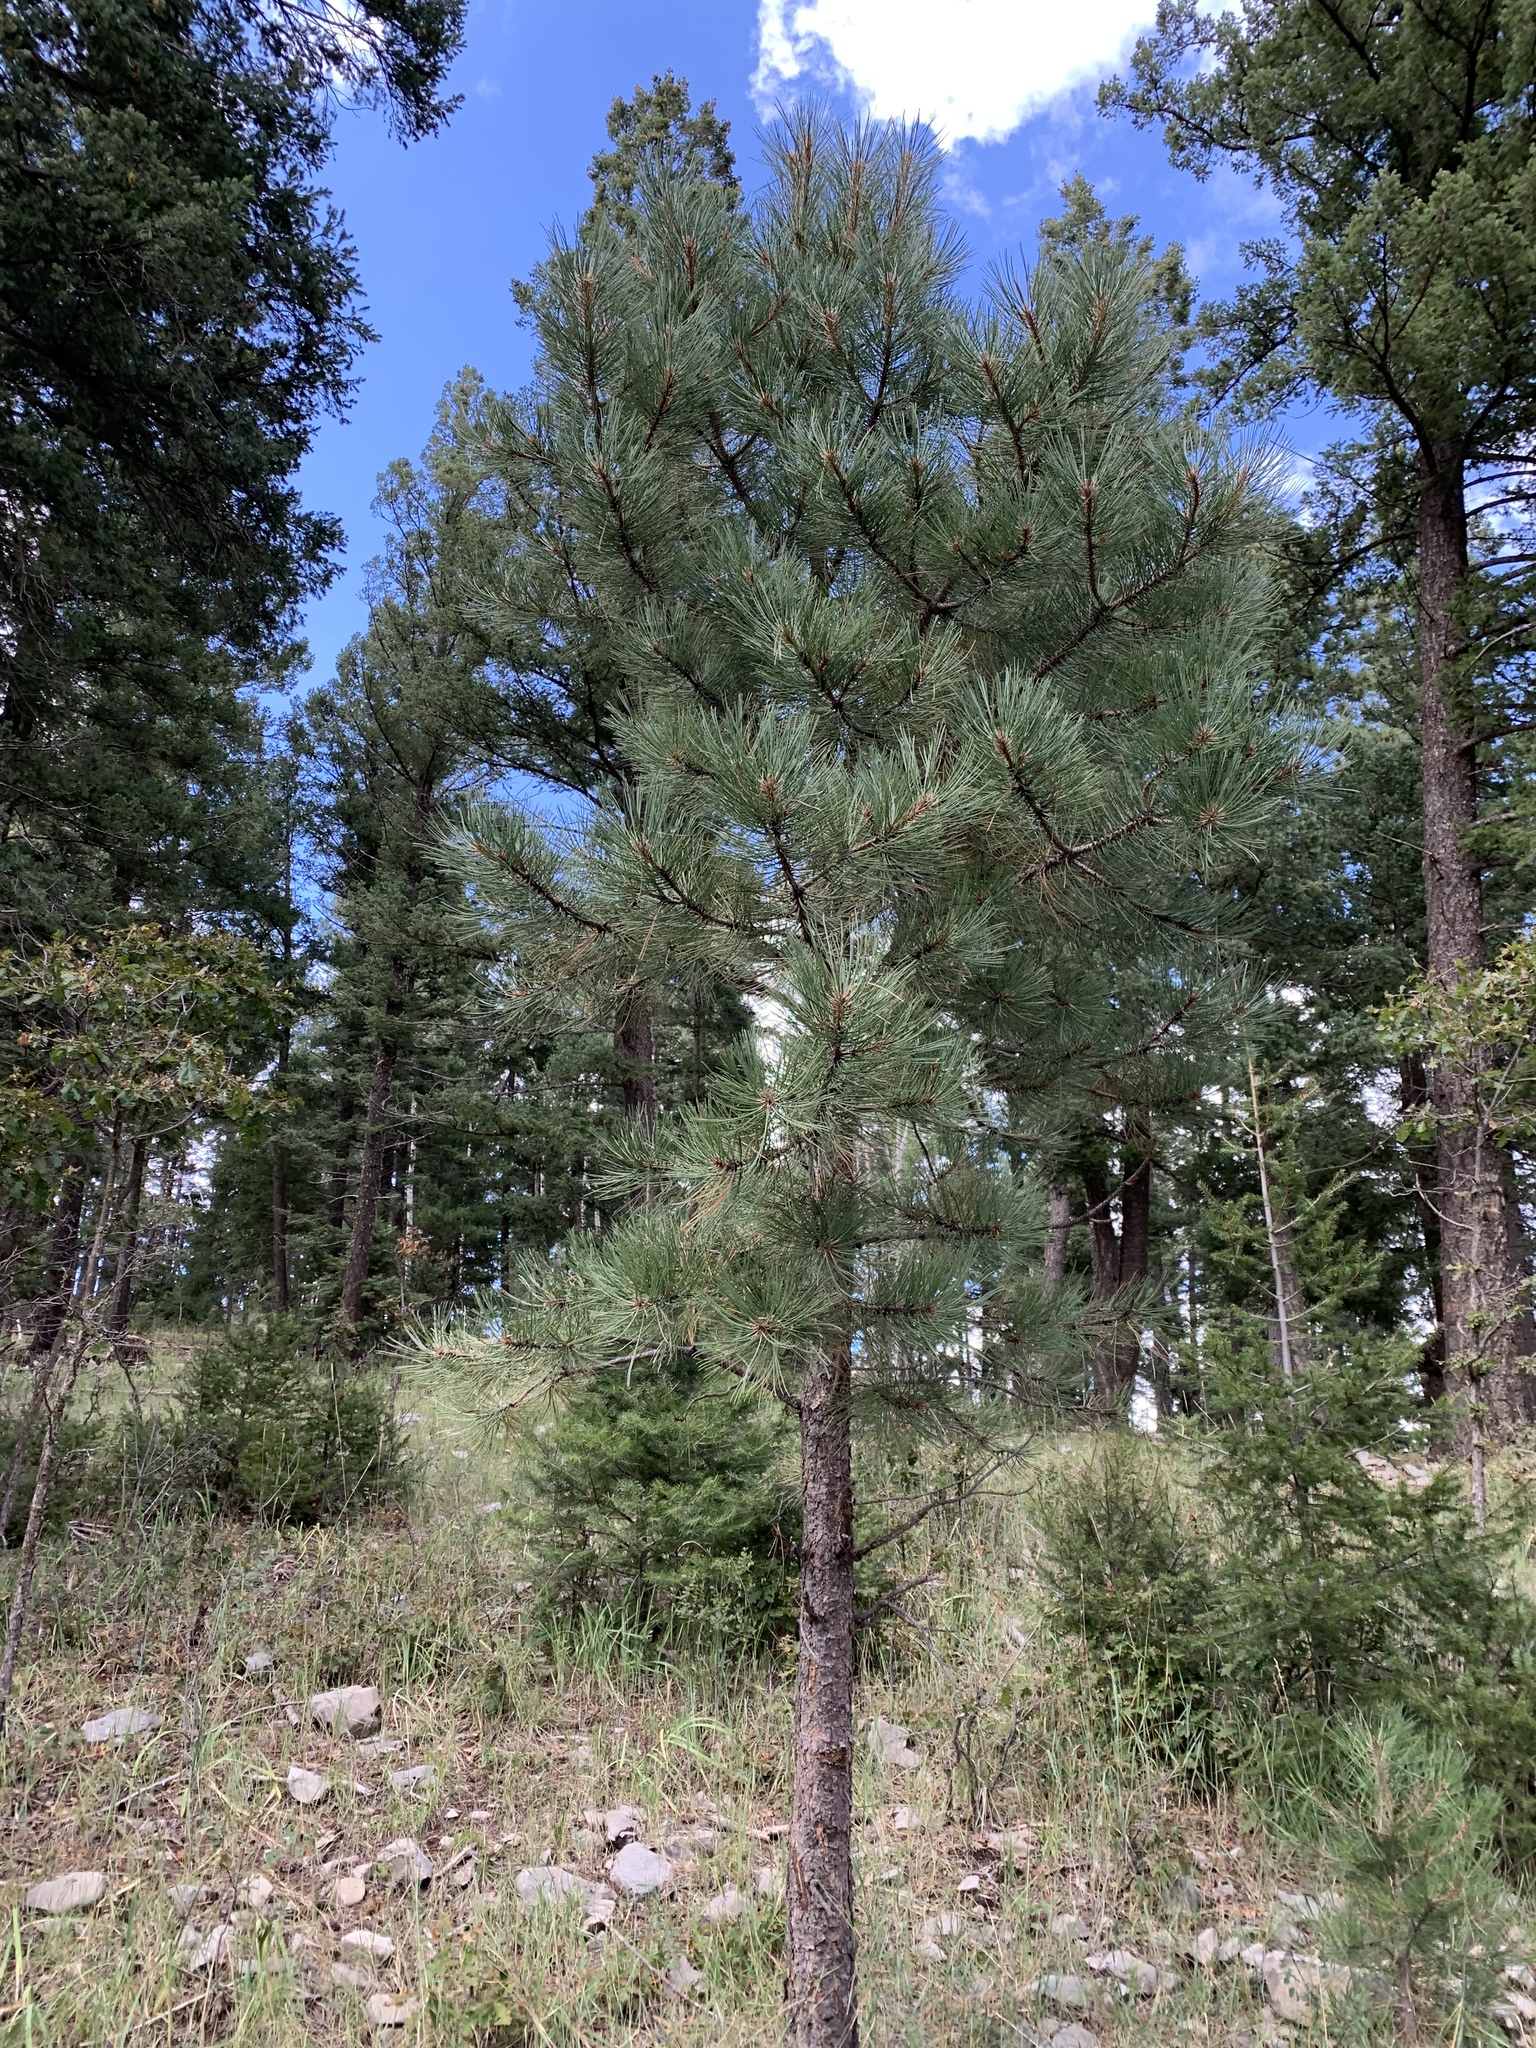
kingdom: Plantae
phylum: Tracheophyta
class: Pinopsida
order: Pinales
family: Pinaceae
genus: Pinus
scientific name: Pinus ponderosa
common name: Western yellow-pine
